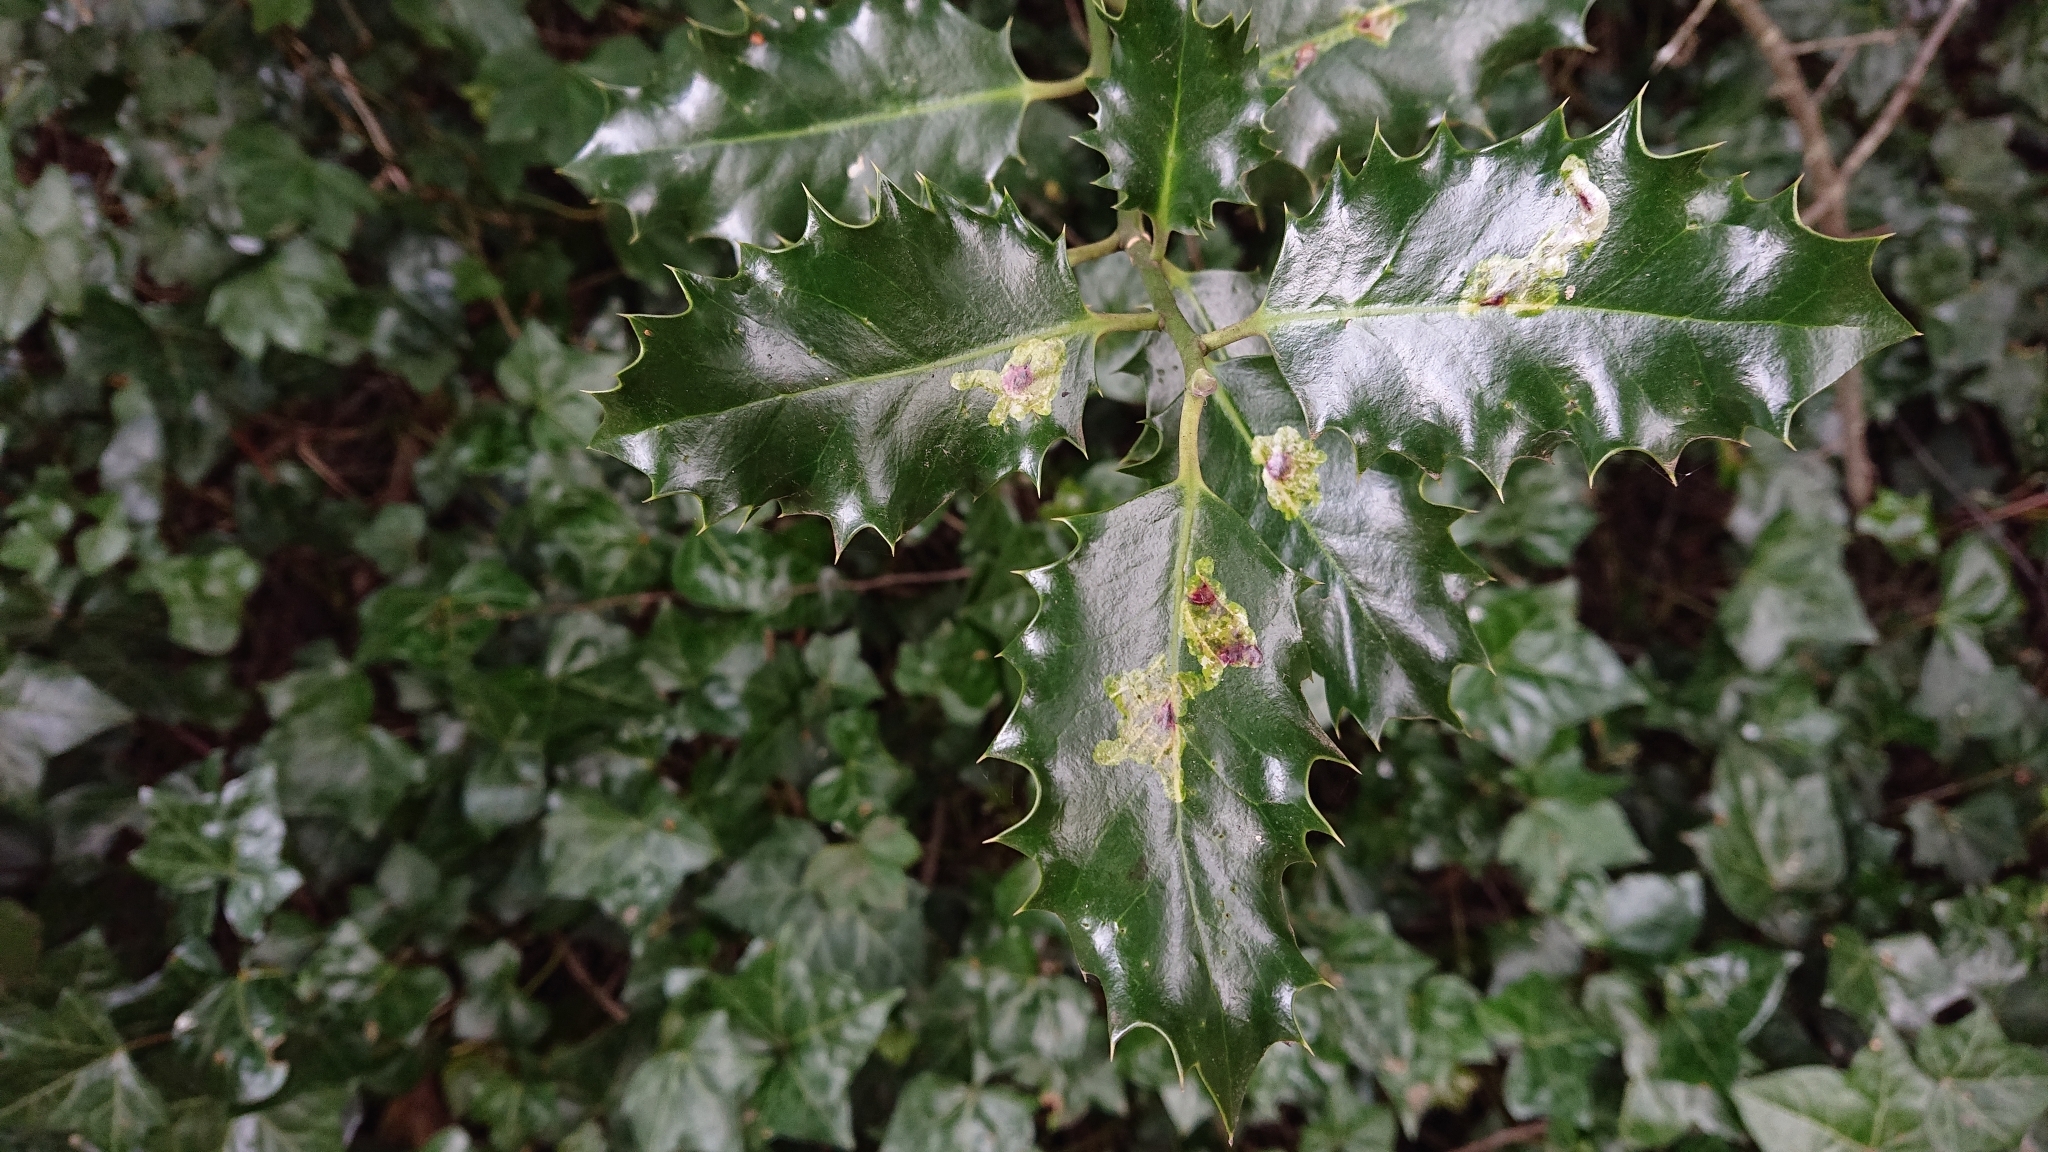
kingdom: Animalia
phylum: Arthropoda
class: Insecta
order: Diptera
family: Agromyzidae
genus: Phytomyza
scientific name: Phytomyza ilicis
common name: Holly leafminer
